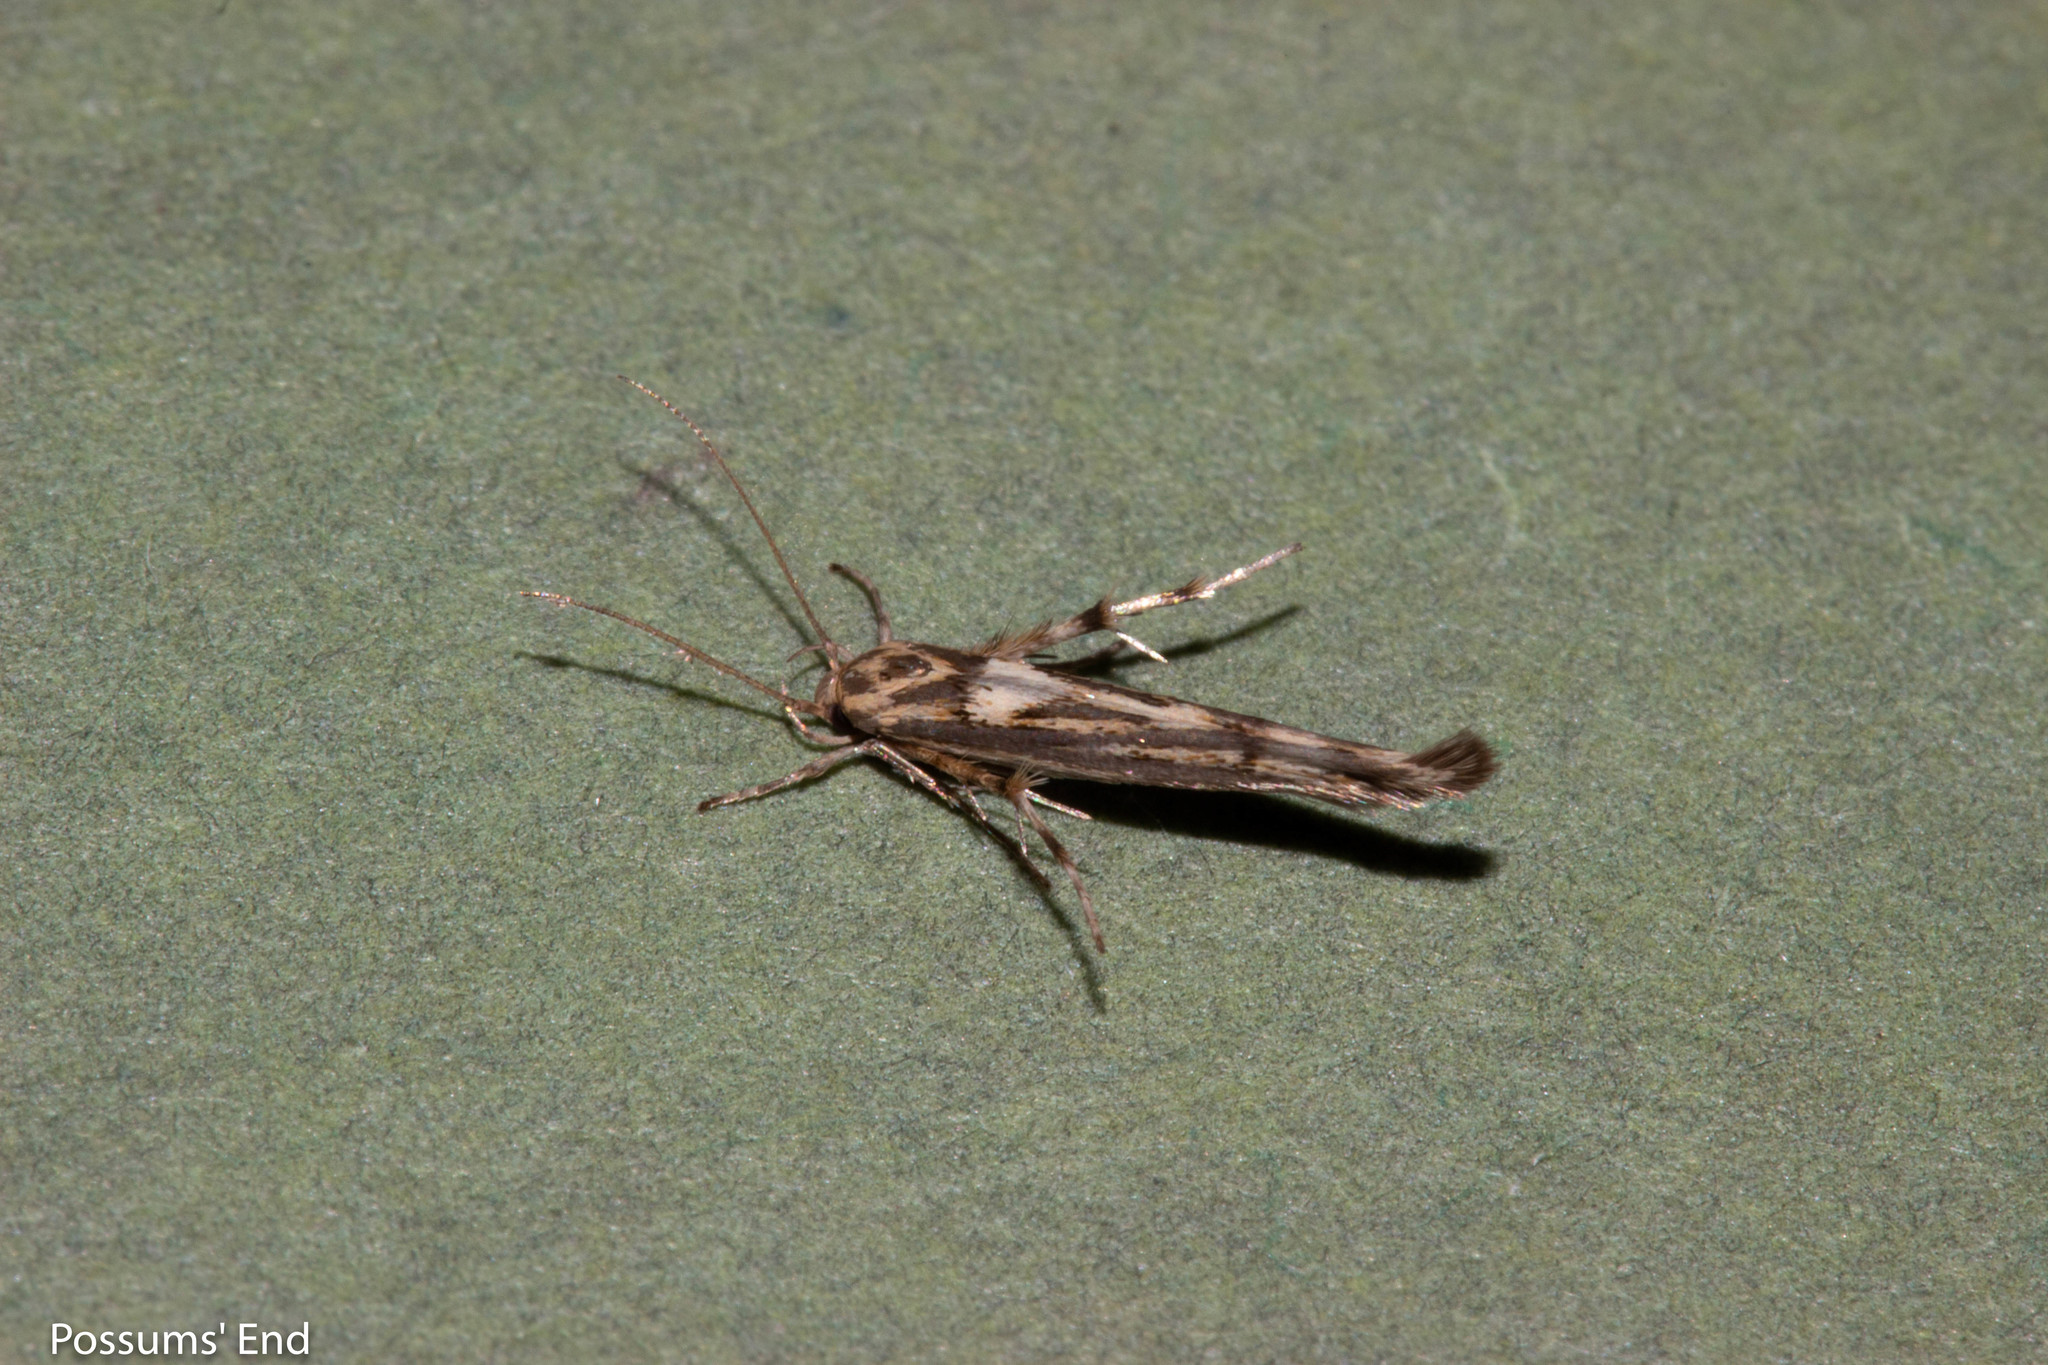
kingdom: Animalia
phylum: Arthropoda
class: Insecta
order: Lepidoptera
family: Stathmopodidae
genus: Stathmopoda
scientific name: Stathmopoda plumbiflua
